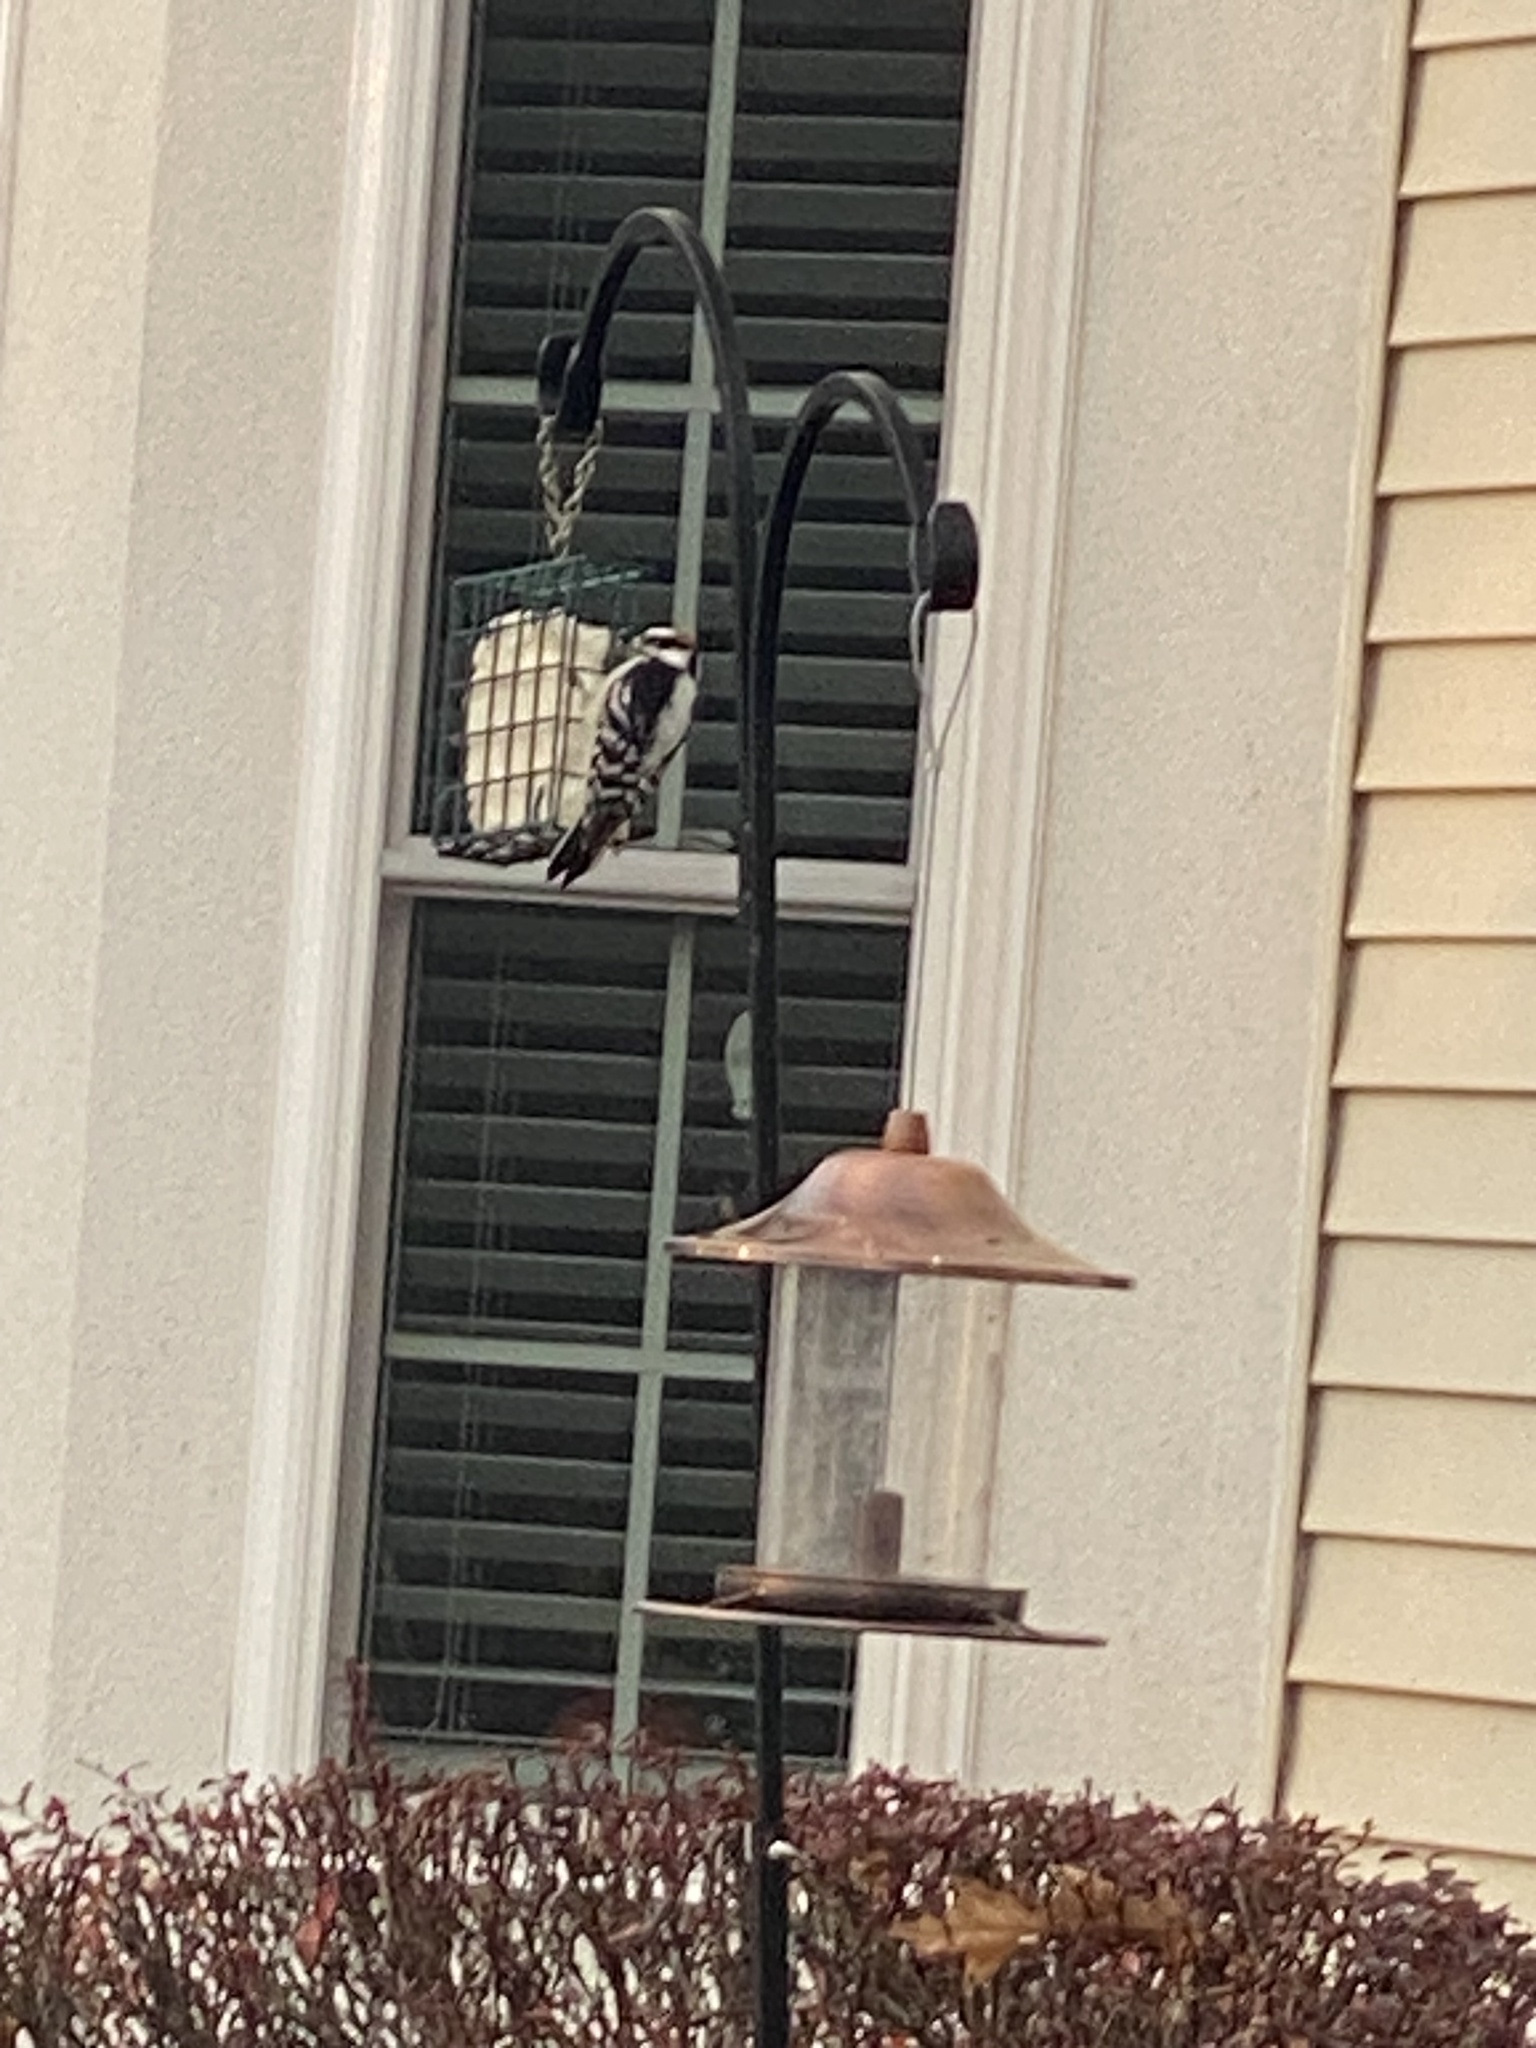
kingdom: Animalia
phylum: Chordata
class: Aves
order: Piciformes
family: Picidae
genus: Dryobates
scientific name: Dryobates pubescens
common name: Downy woodpecker
